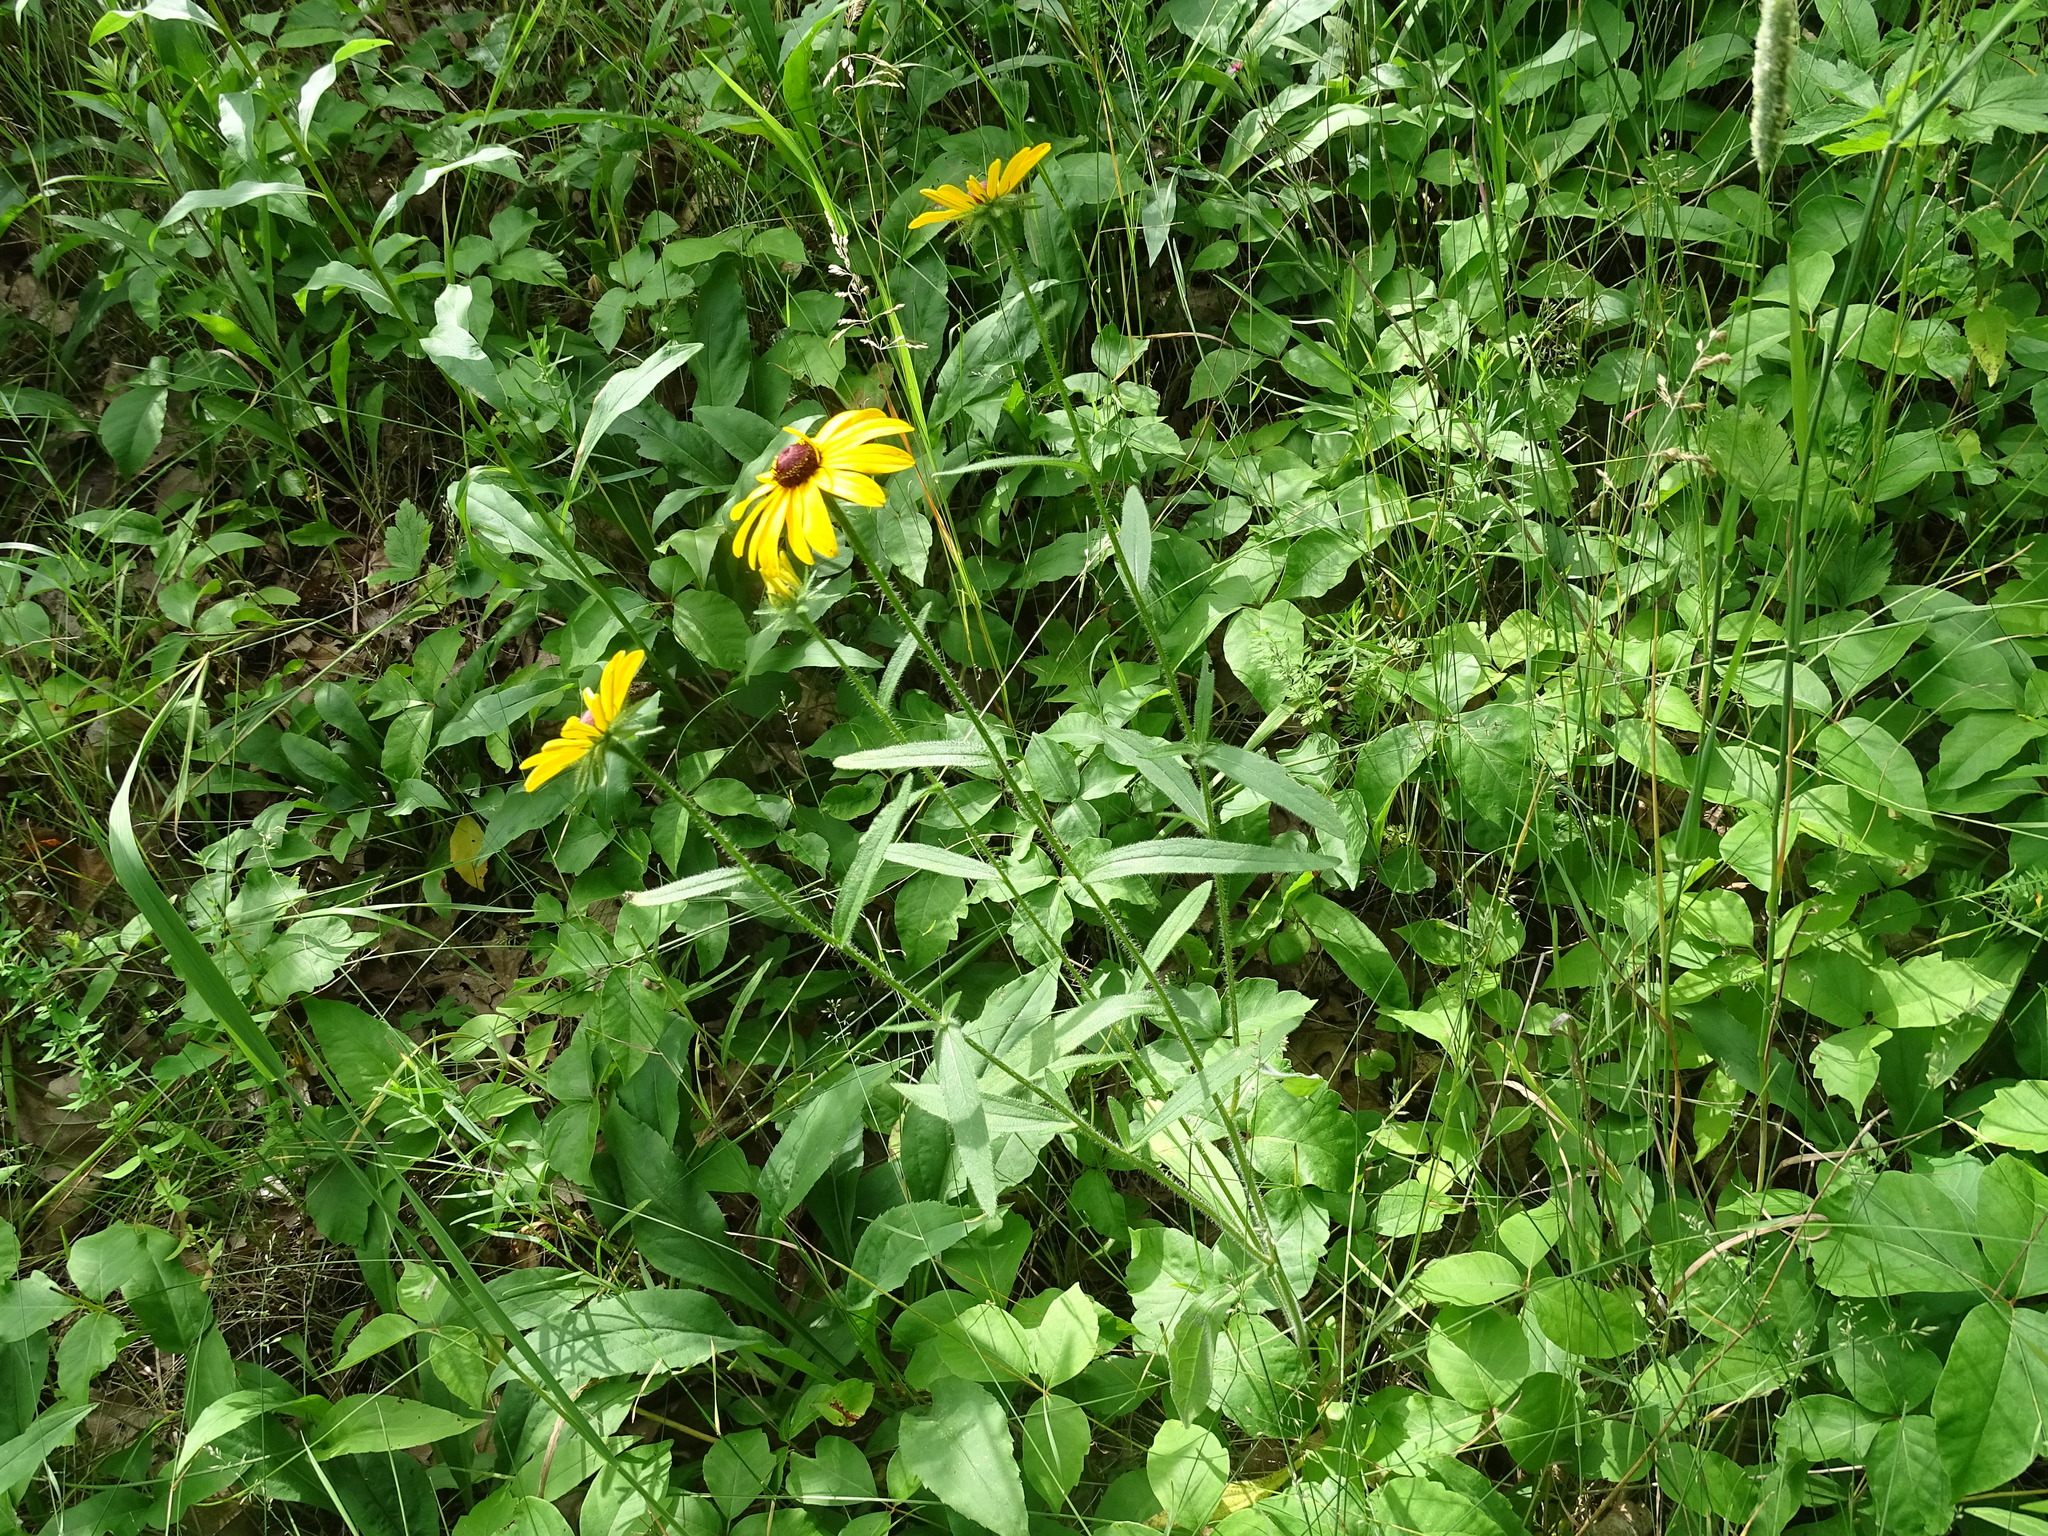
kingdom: Plantae
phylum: Tracheophyta
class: Magnoliopsida
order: Asterales
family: Asteraceae
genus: Rudbeckia
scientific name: Rudbeckia hirta
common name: Black-eyed-susan
